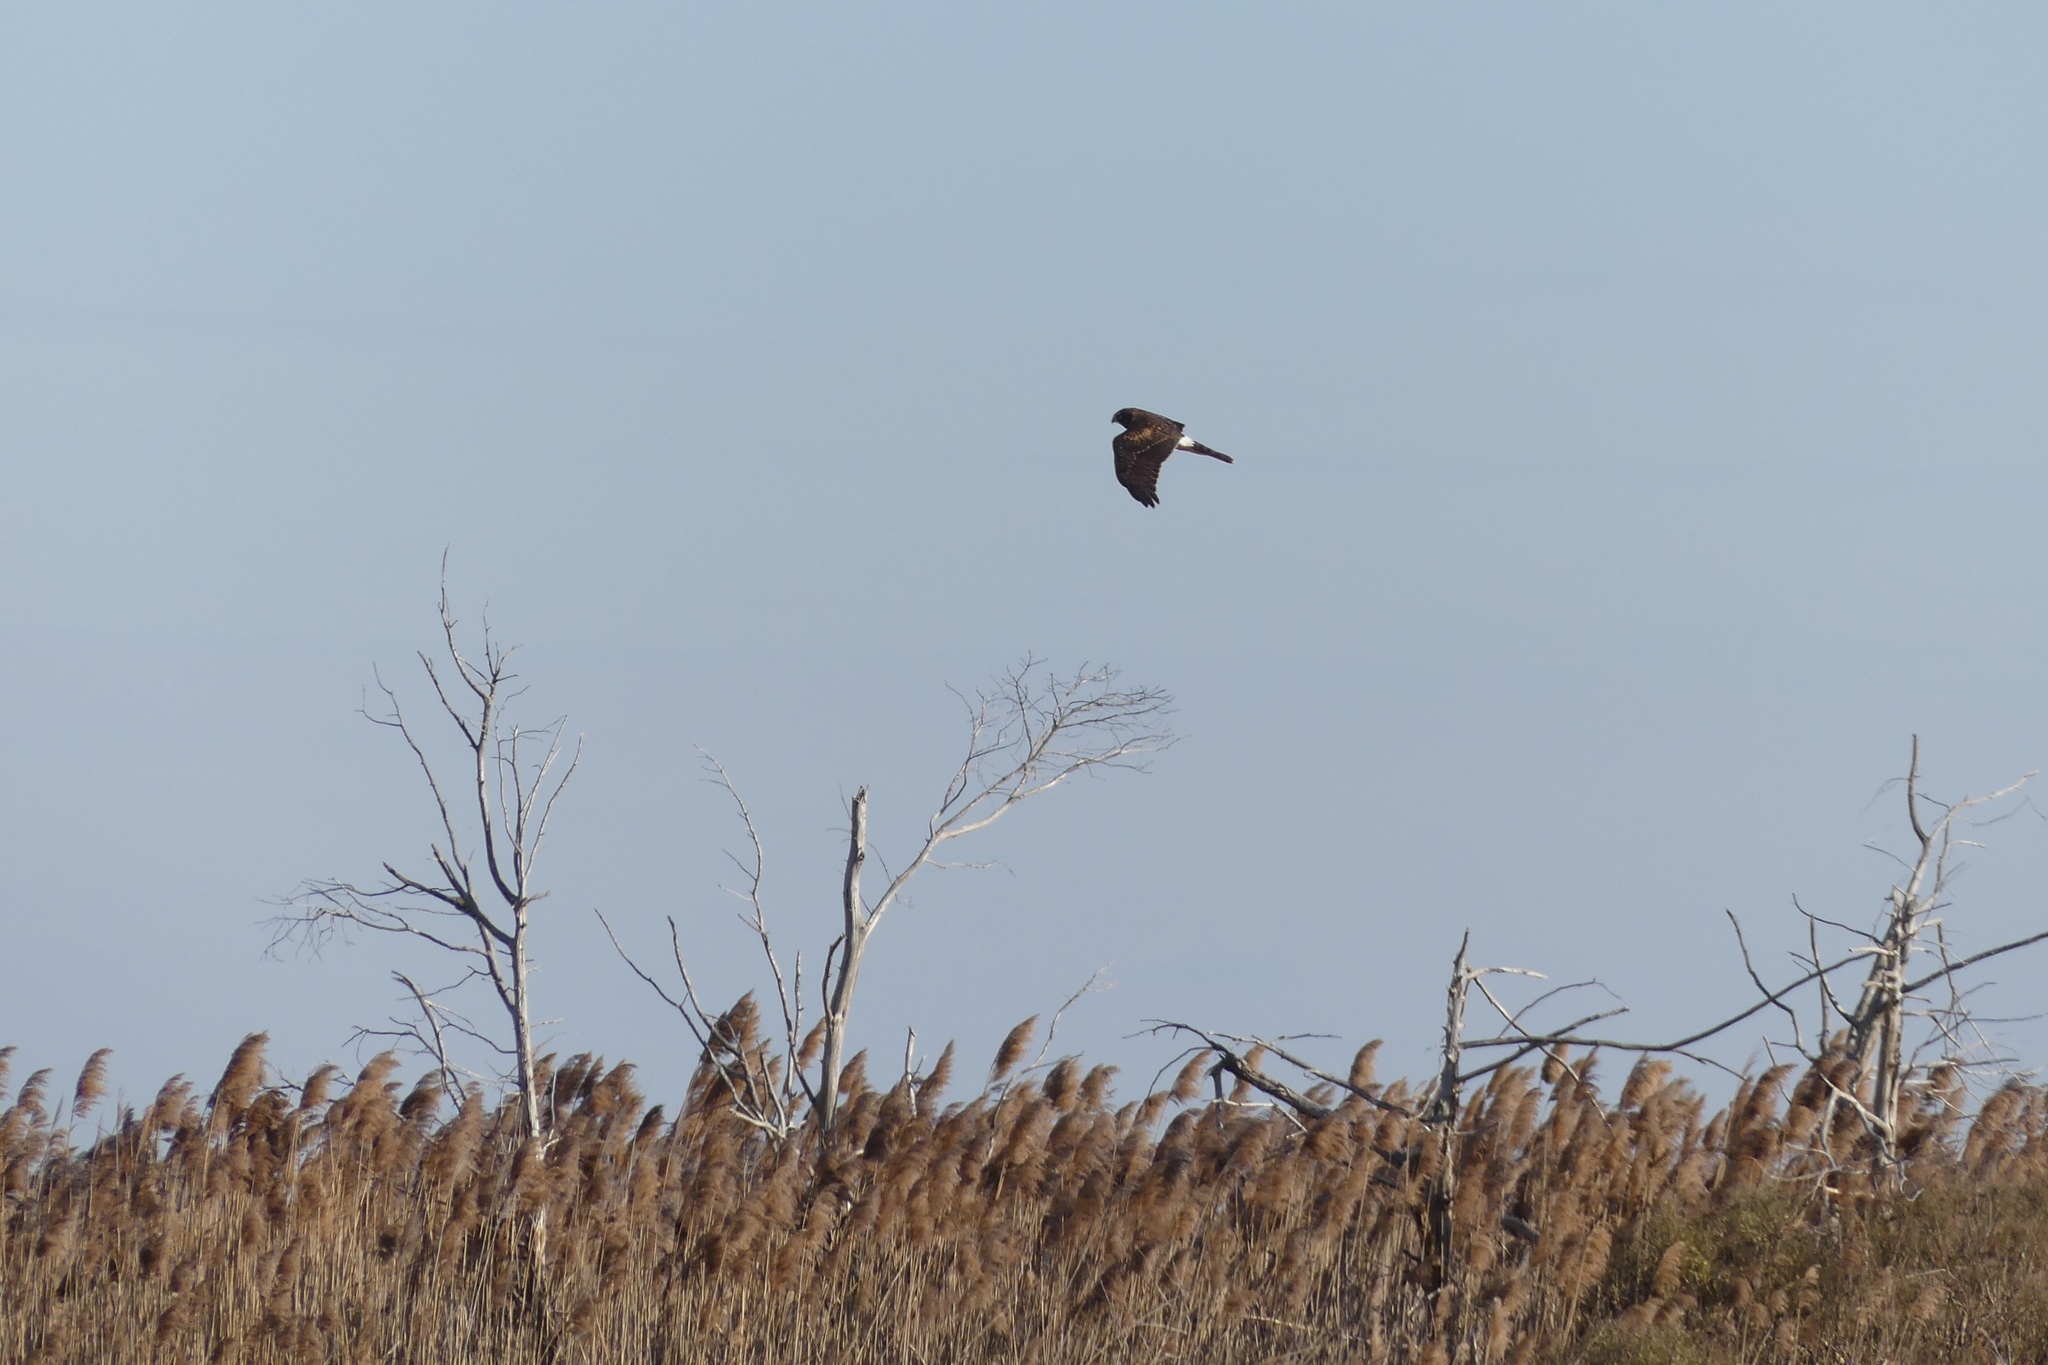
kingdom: Animalia
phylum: Chordata
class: Aves
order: Accipitriformes
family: Accipitridae
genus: Circus
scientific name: Circus cyaneus
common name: Hen harrier
